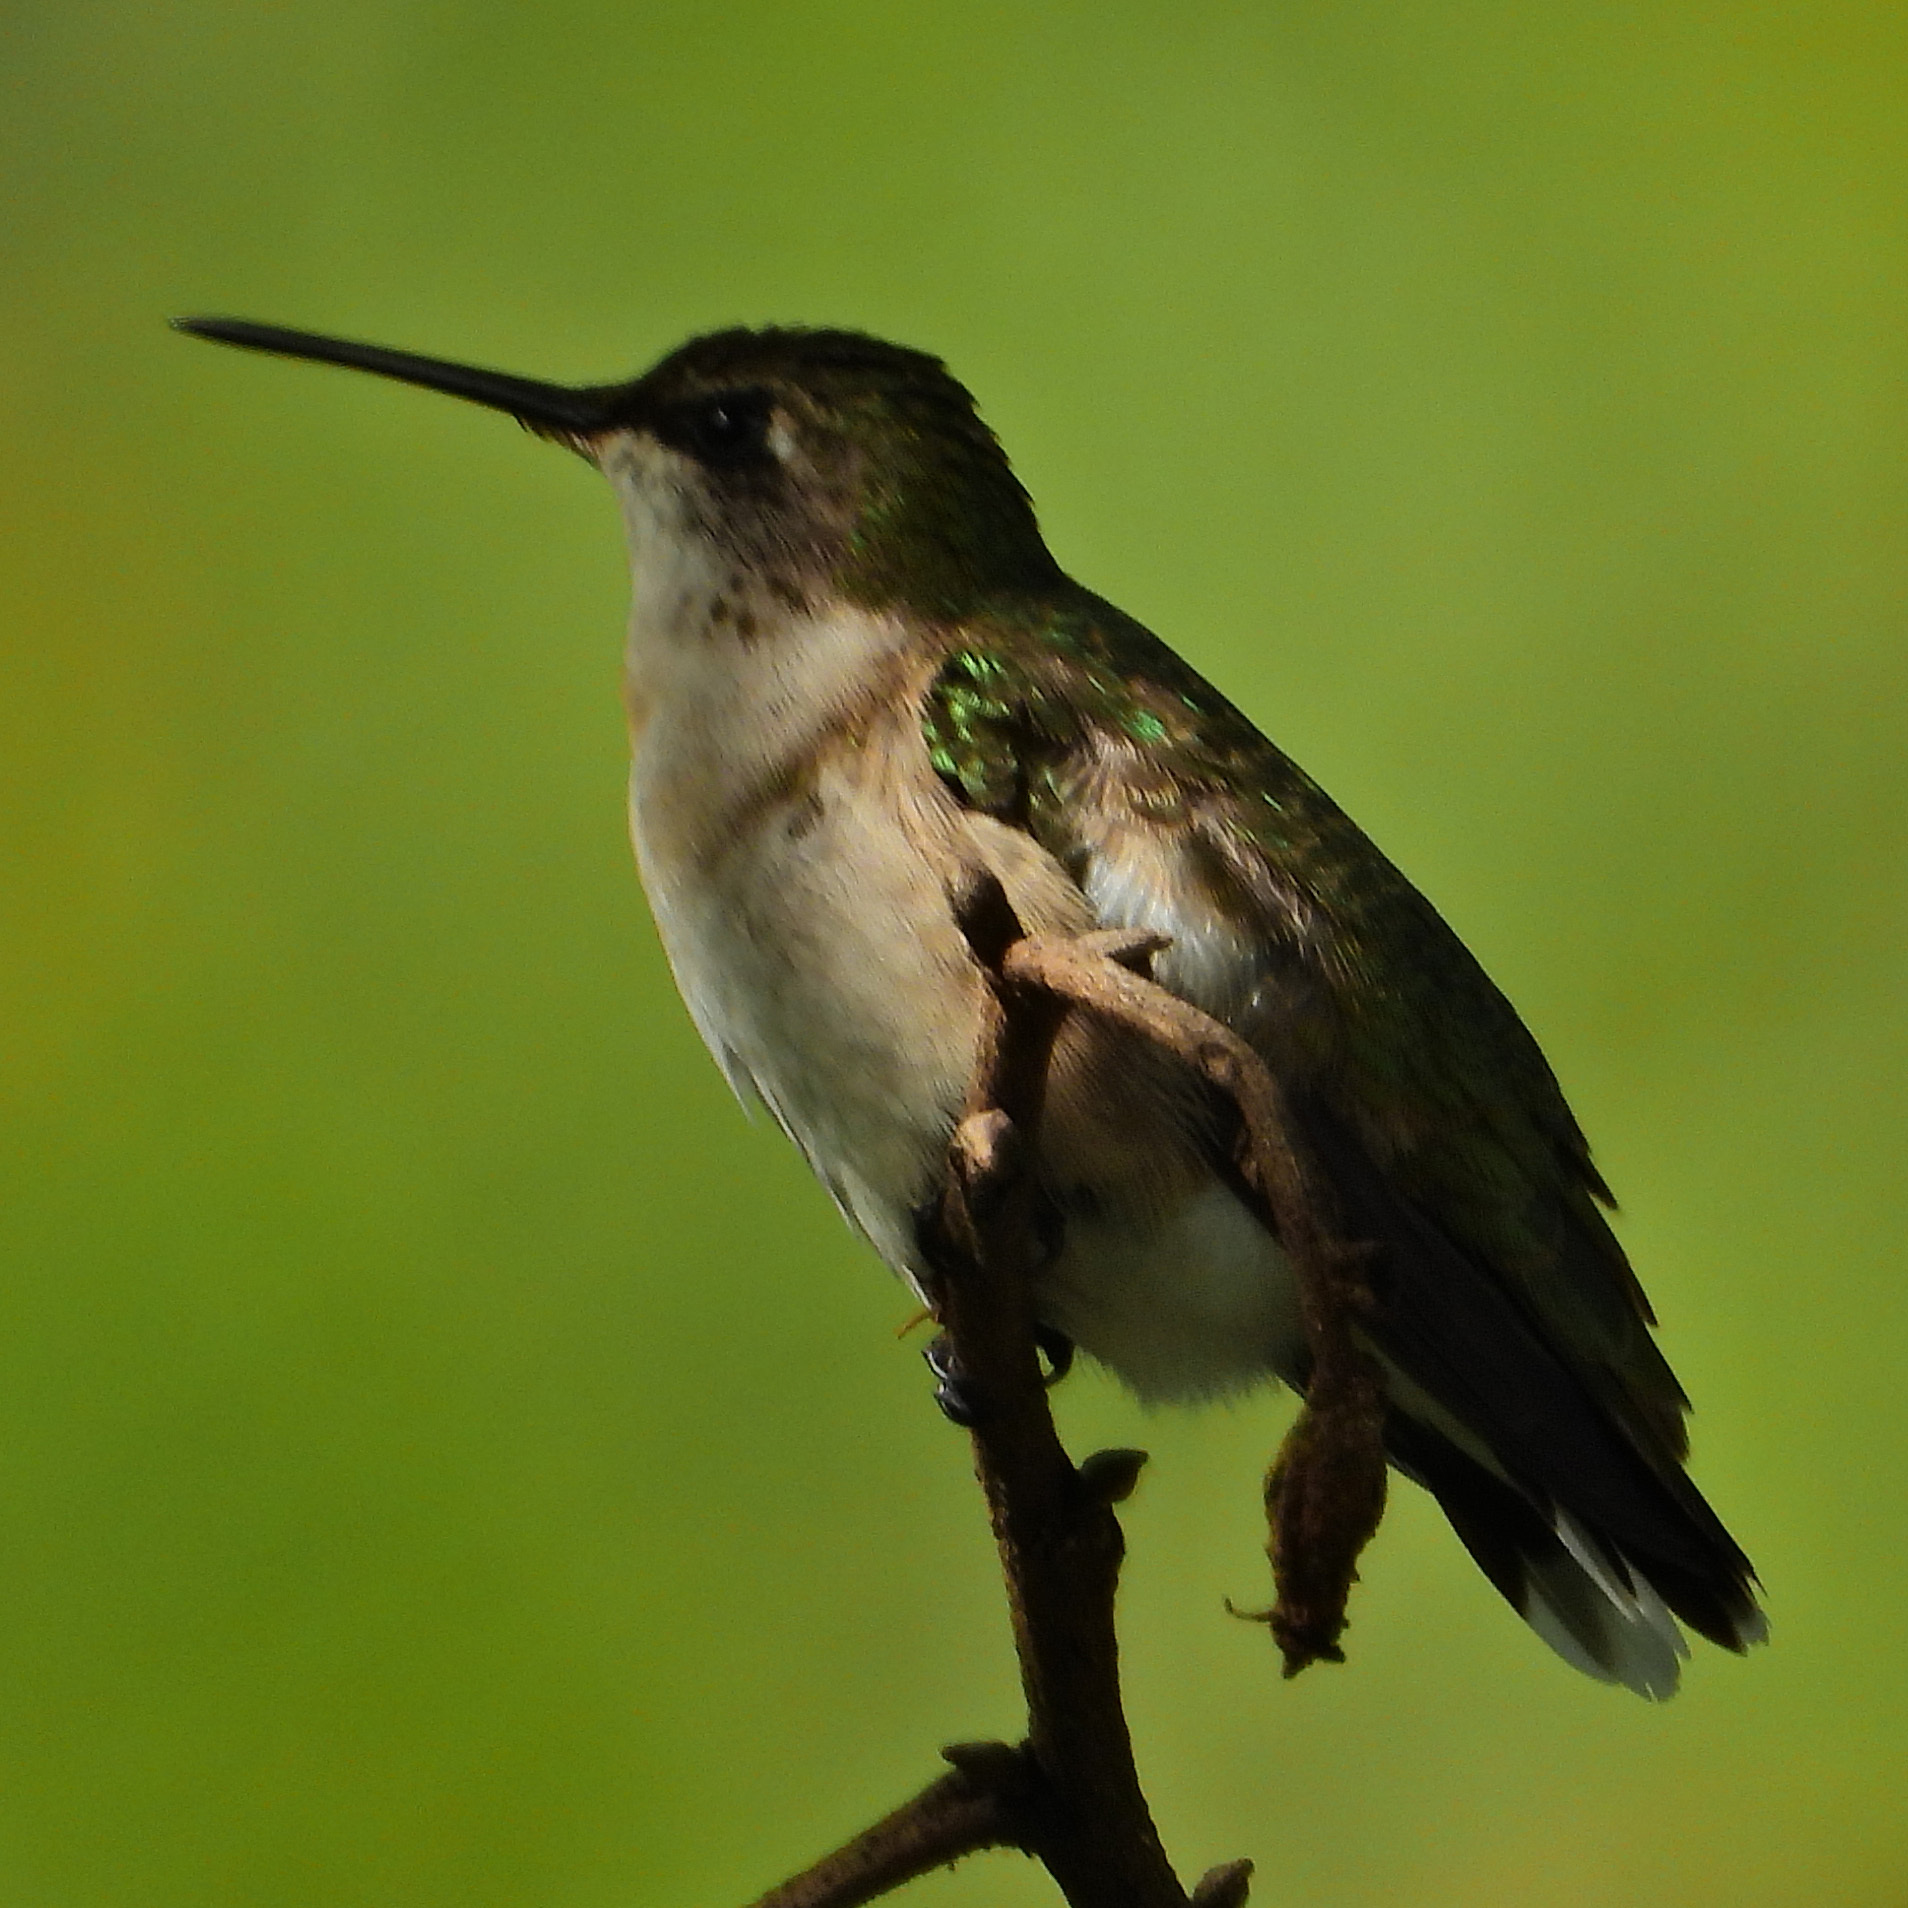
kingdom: Animalia
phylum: Chordata
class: Aves
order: Apodiformes
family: Trochilidae
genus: Archilochus
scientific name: Archilochus colubris
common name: Ruby-throated hummingbird
